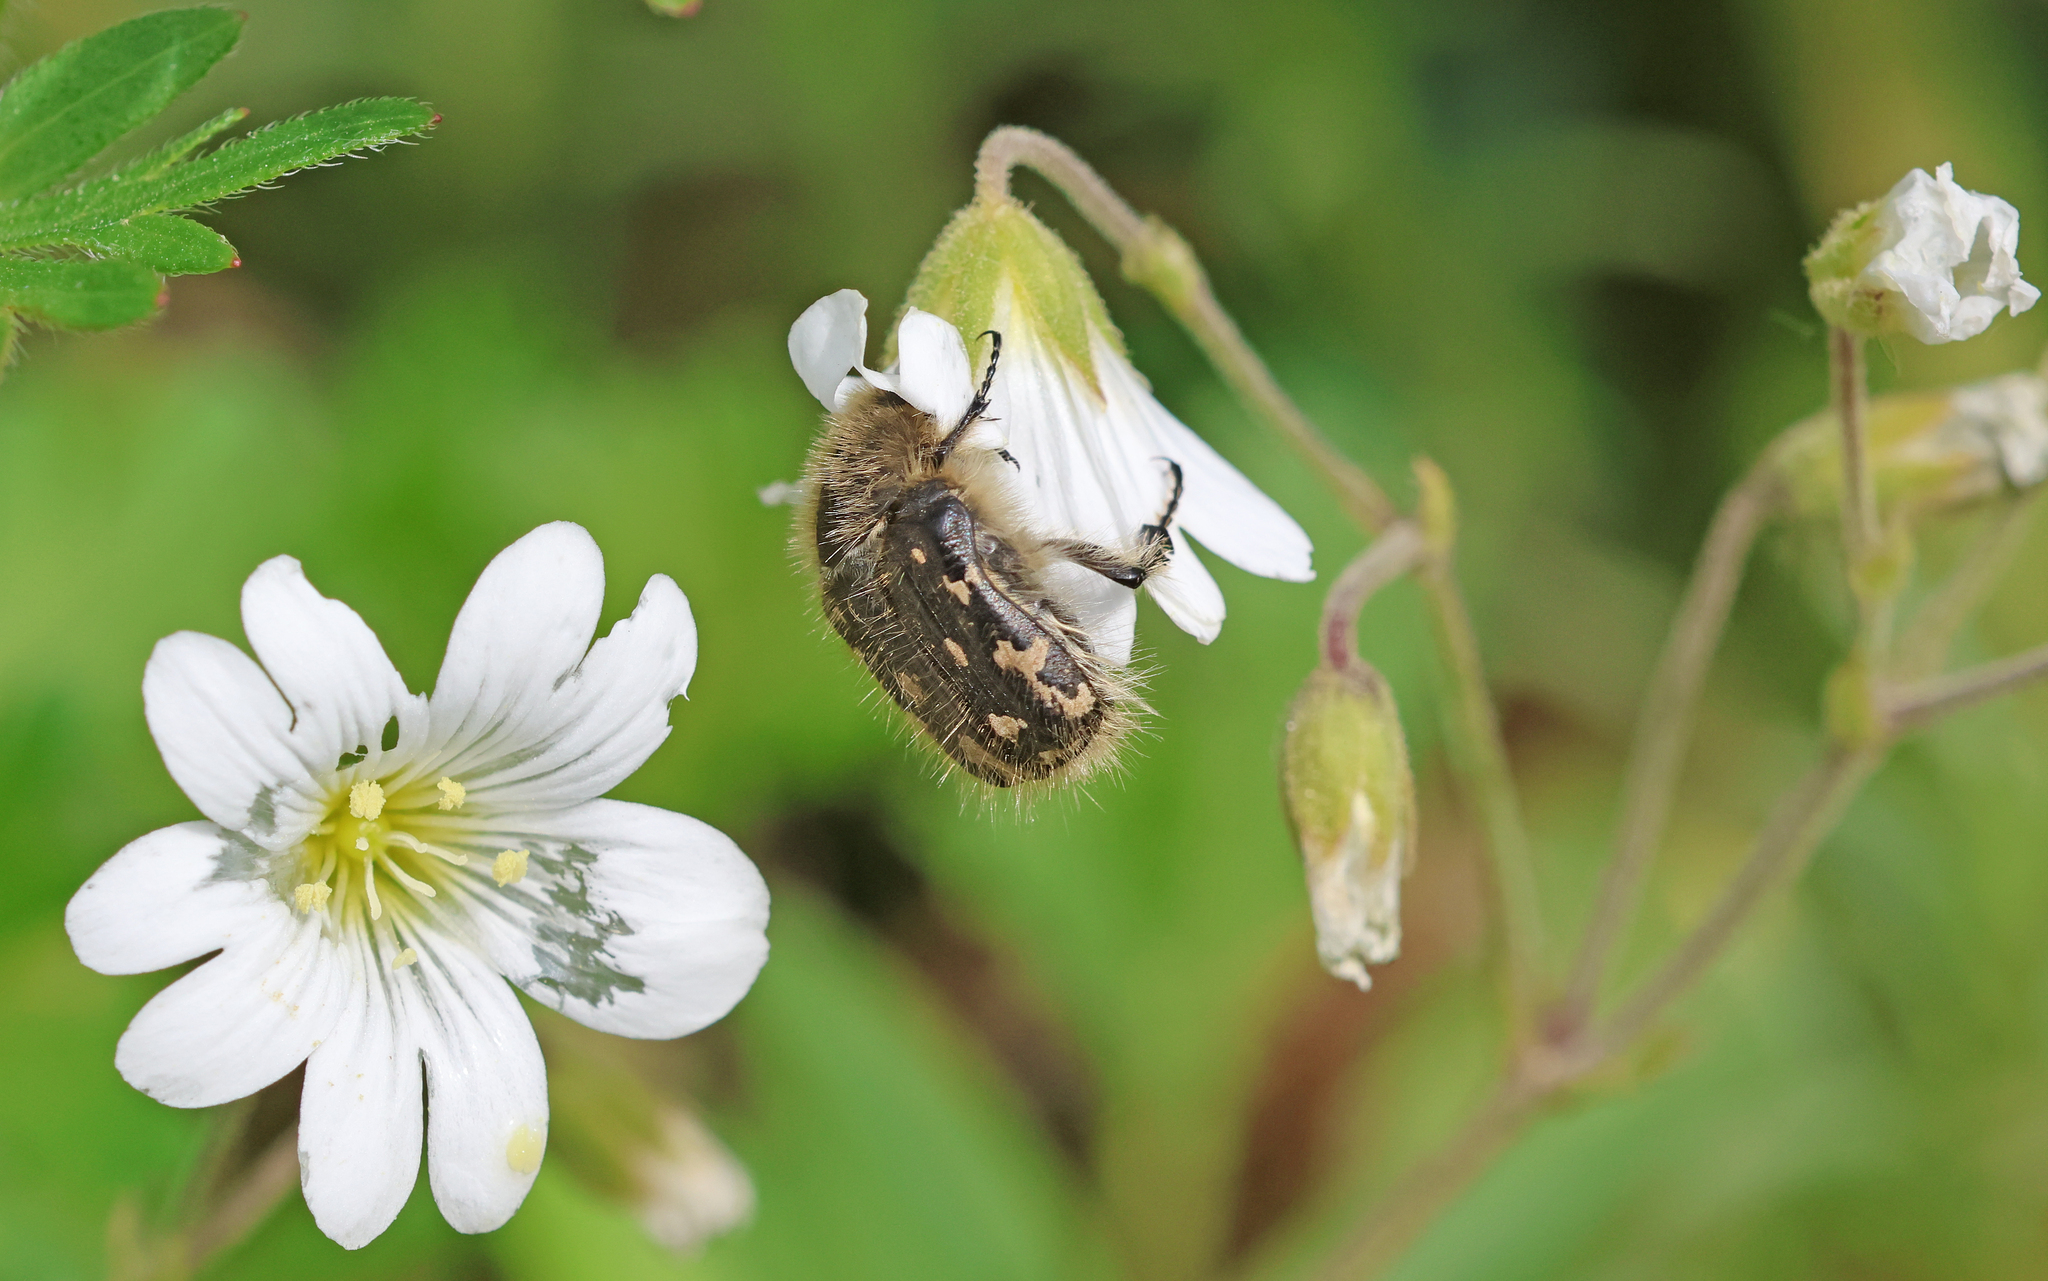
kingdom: Animalia
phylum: Arthropoda
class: Insecta
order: Coleoptera
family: Scarabaeidae
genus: Tropinota
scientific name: Tropinota hirta
